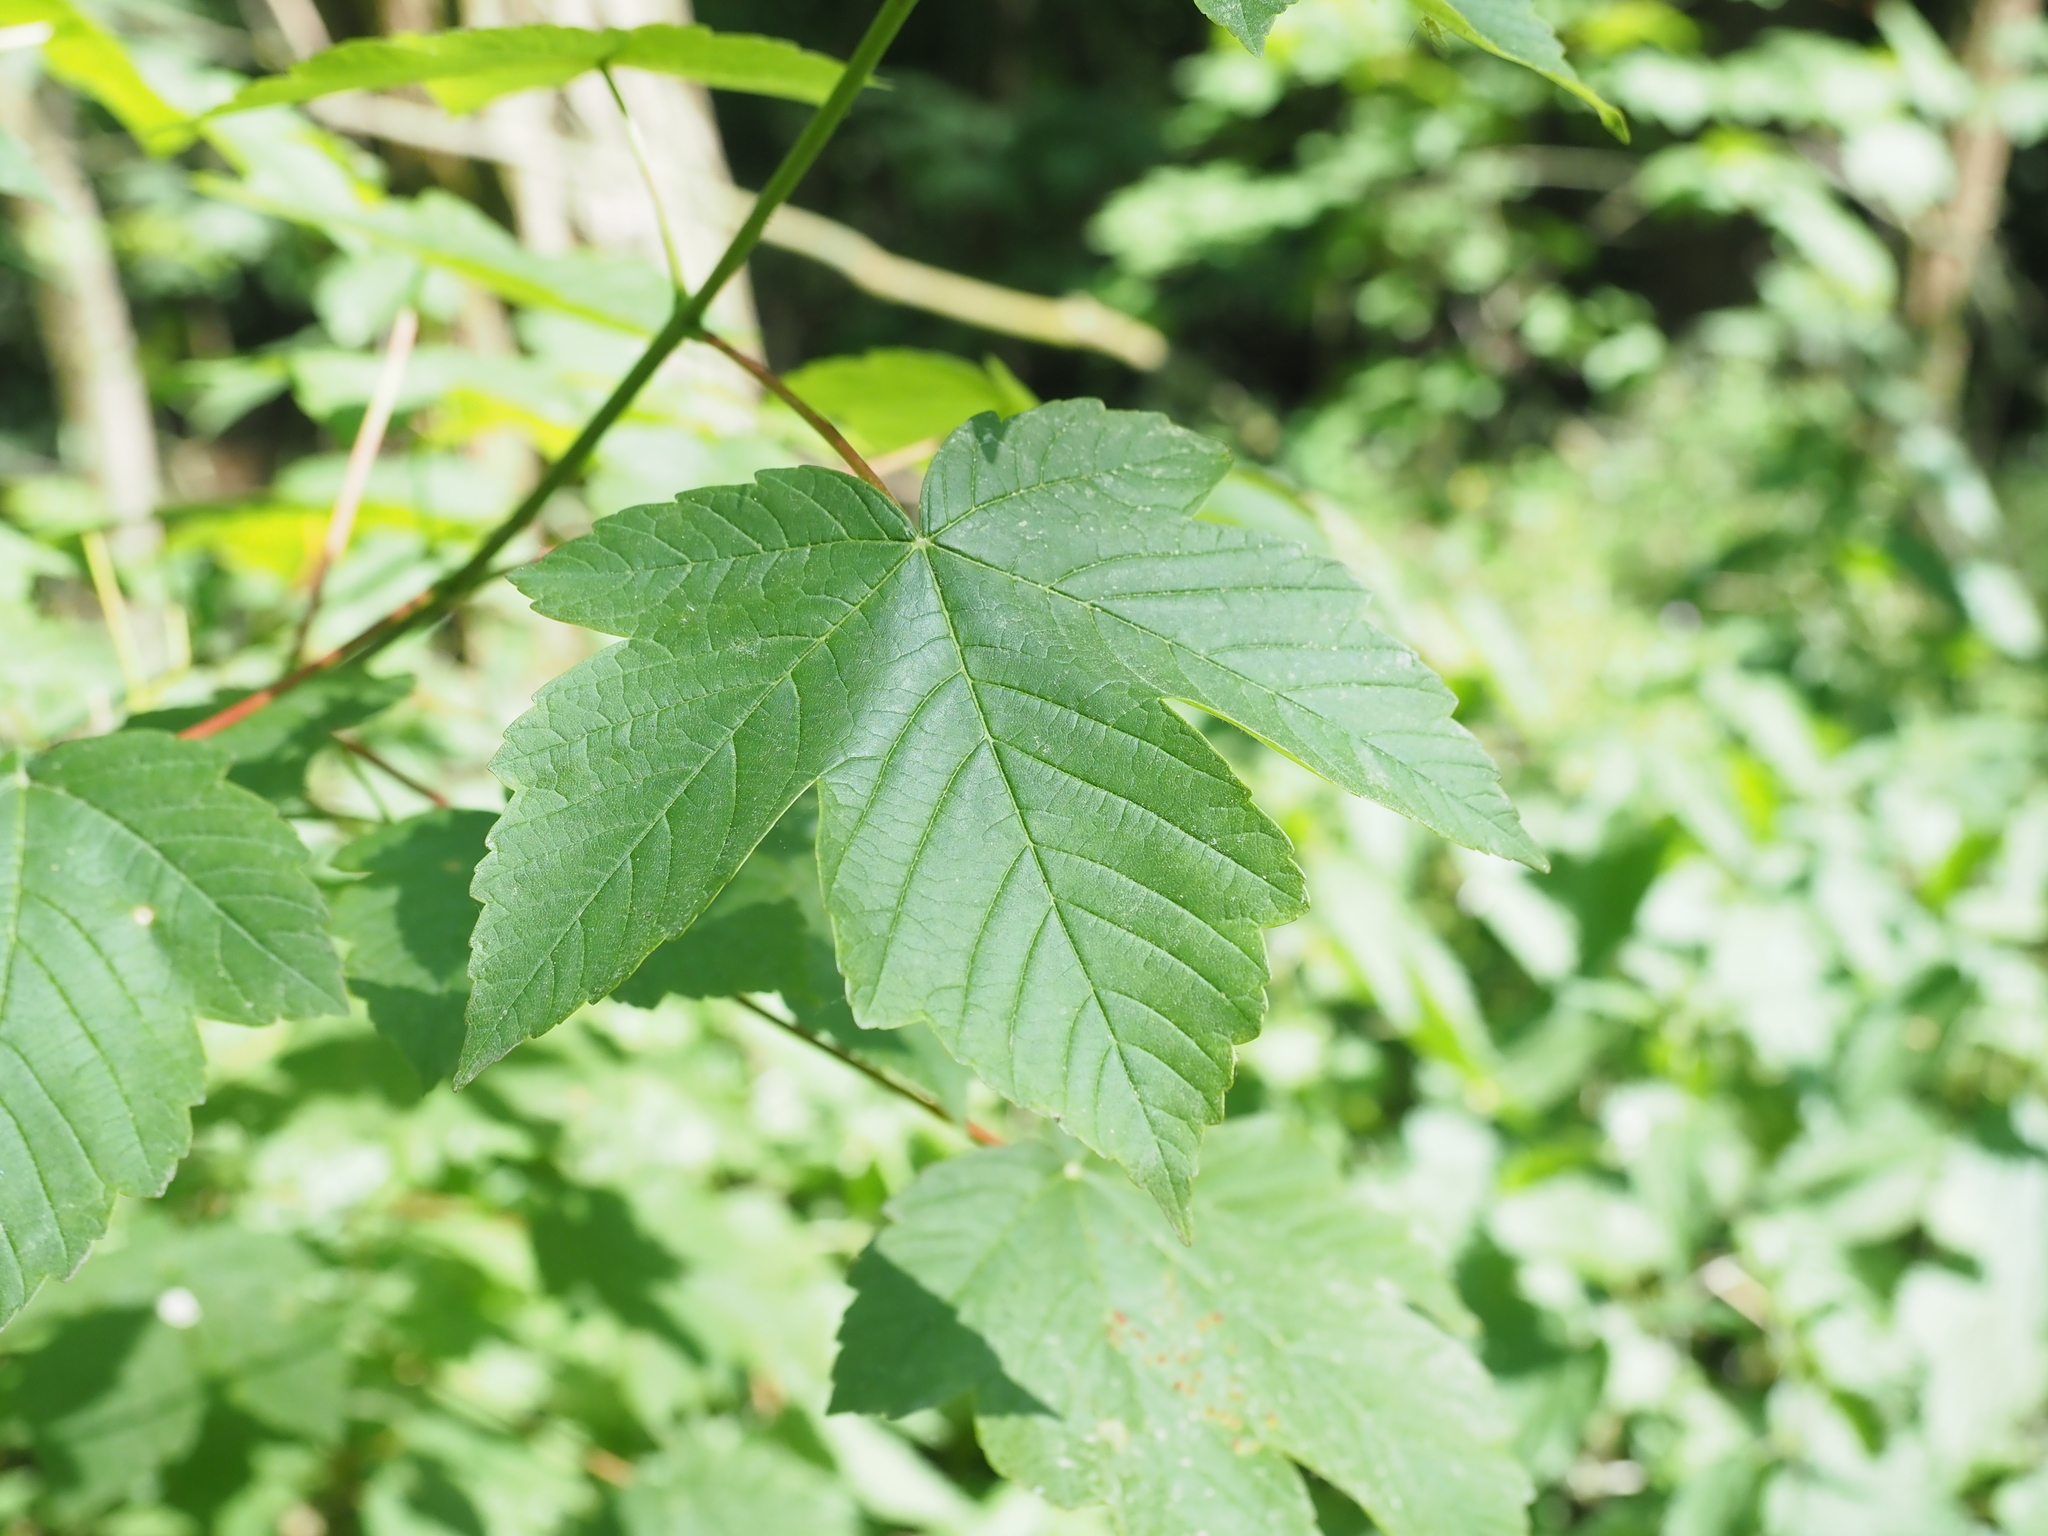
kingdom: Plantae
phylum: Tracheophyta
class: Magnoliopsida
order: Sapindales
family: Sapindaceae
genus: Acer
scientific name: Acer pseudoplatanus
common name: Sycamore
